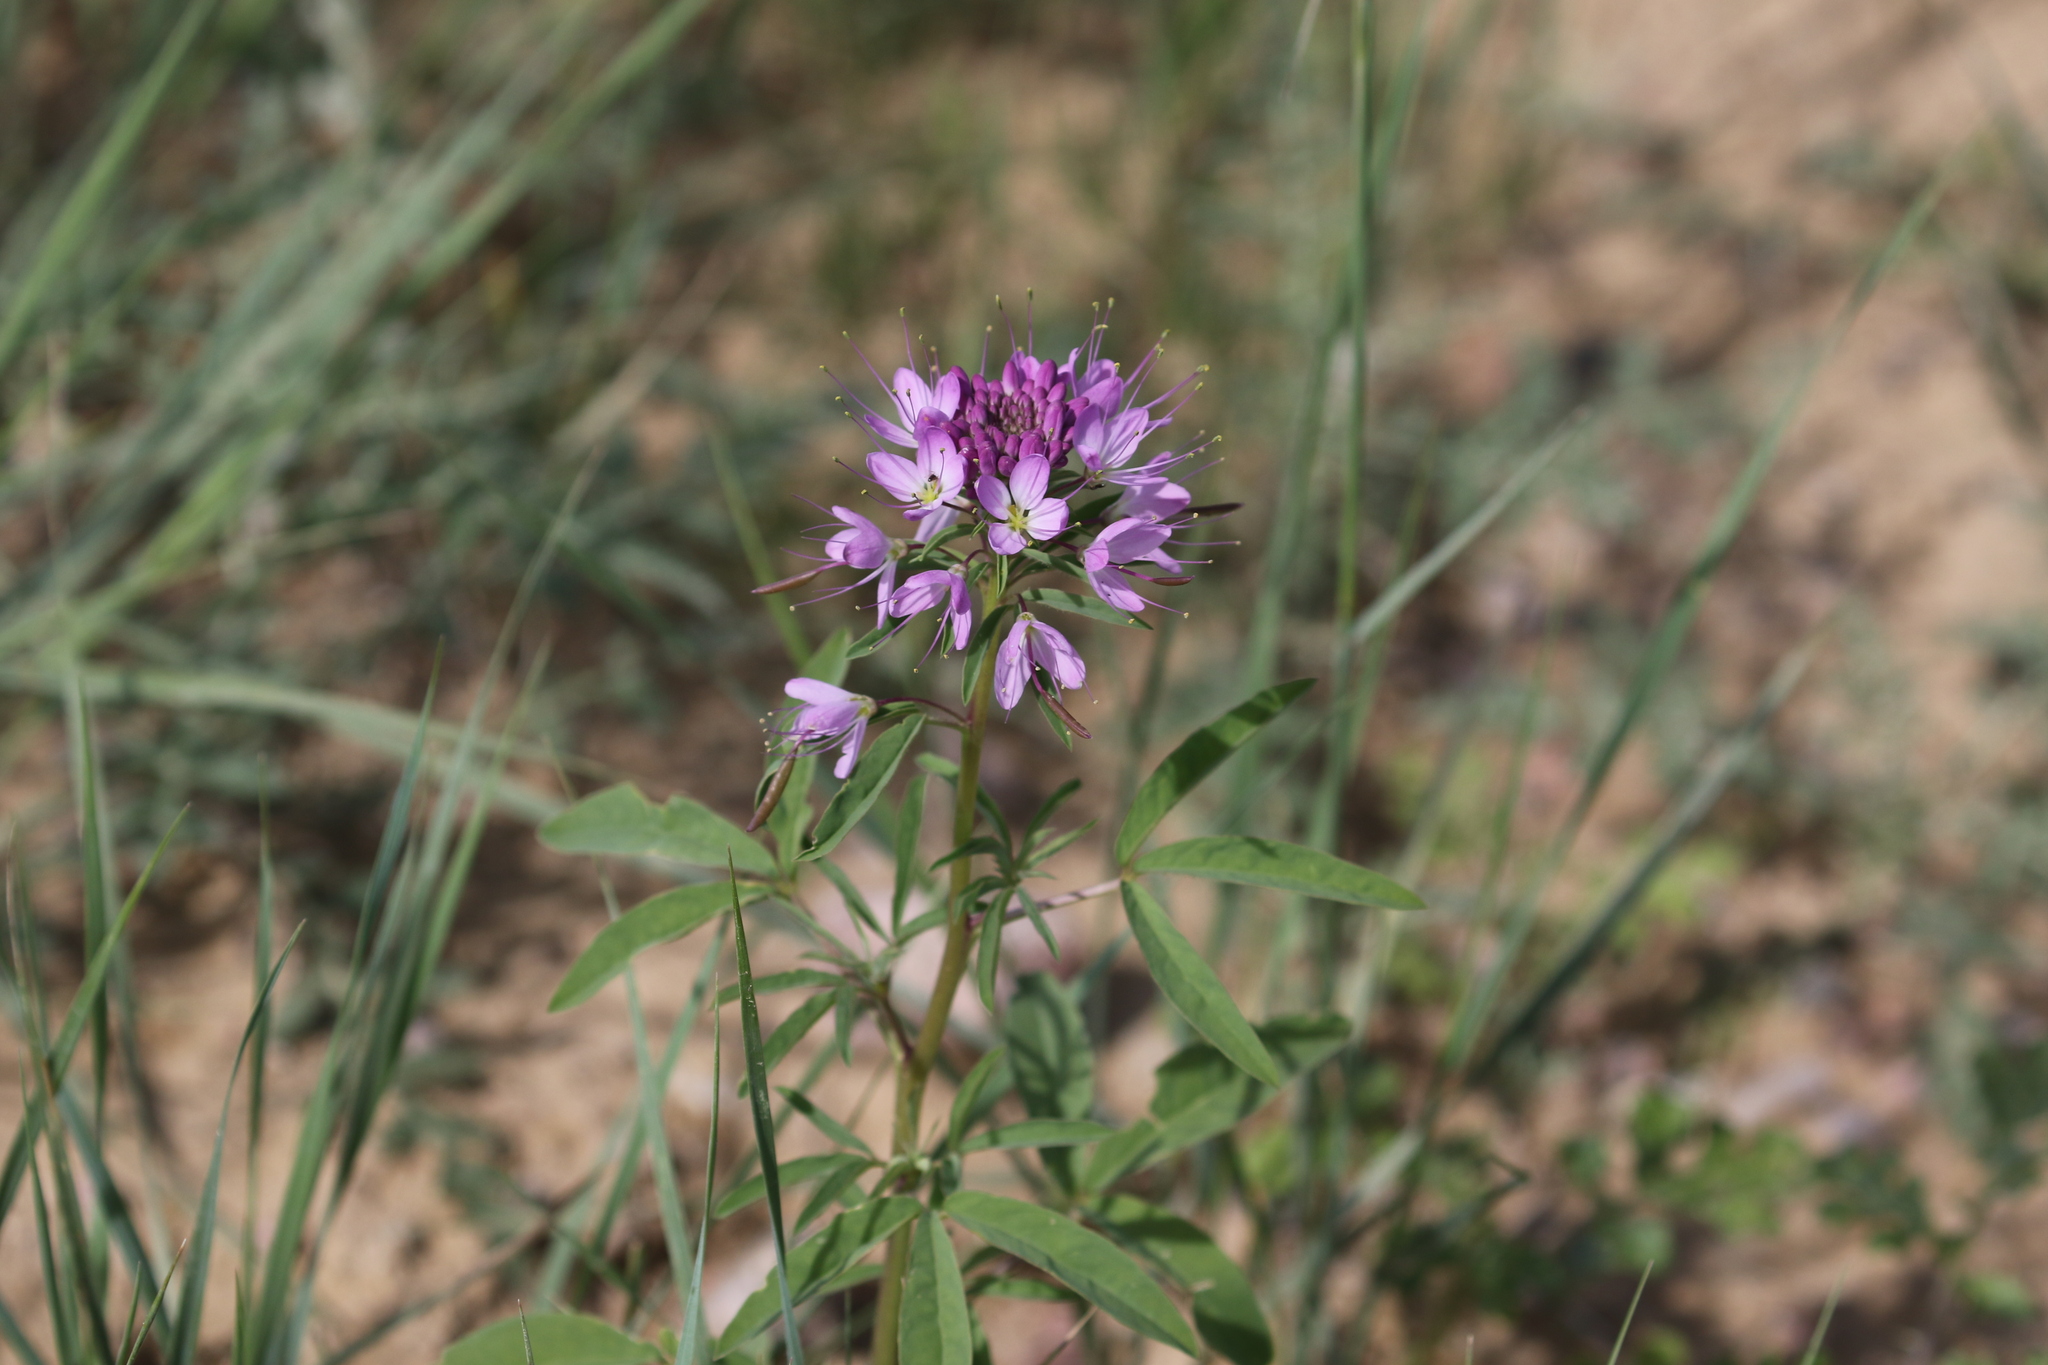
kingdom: Plantae
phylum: Tracheophyta
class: Magnoliopsida
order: Brassicales
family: Cleomaceae
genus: Cleomella
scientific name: Cleomella serrulata
